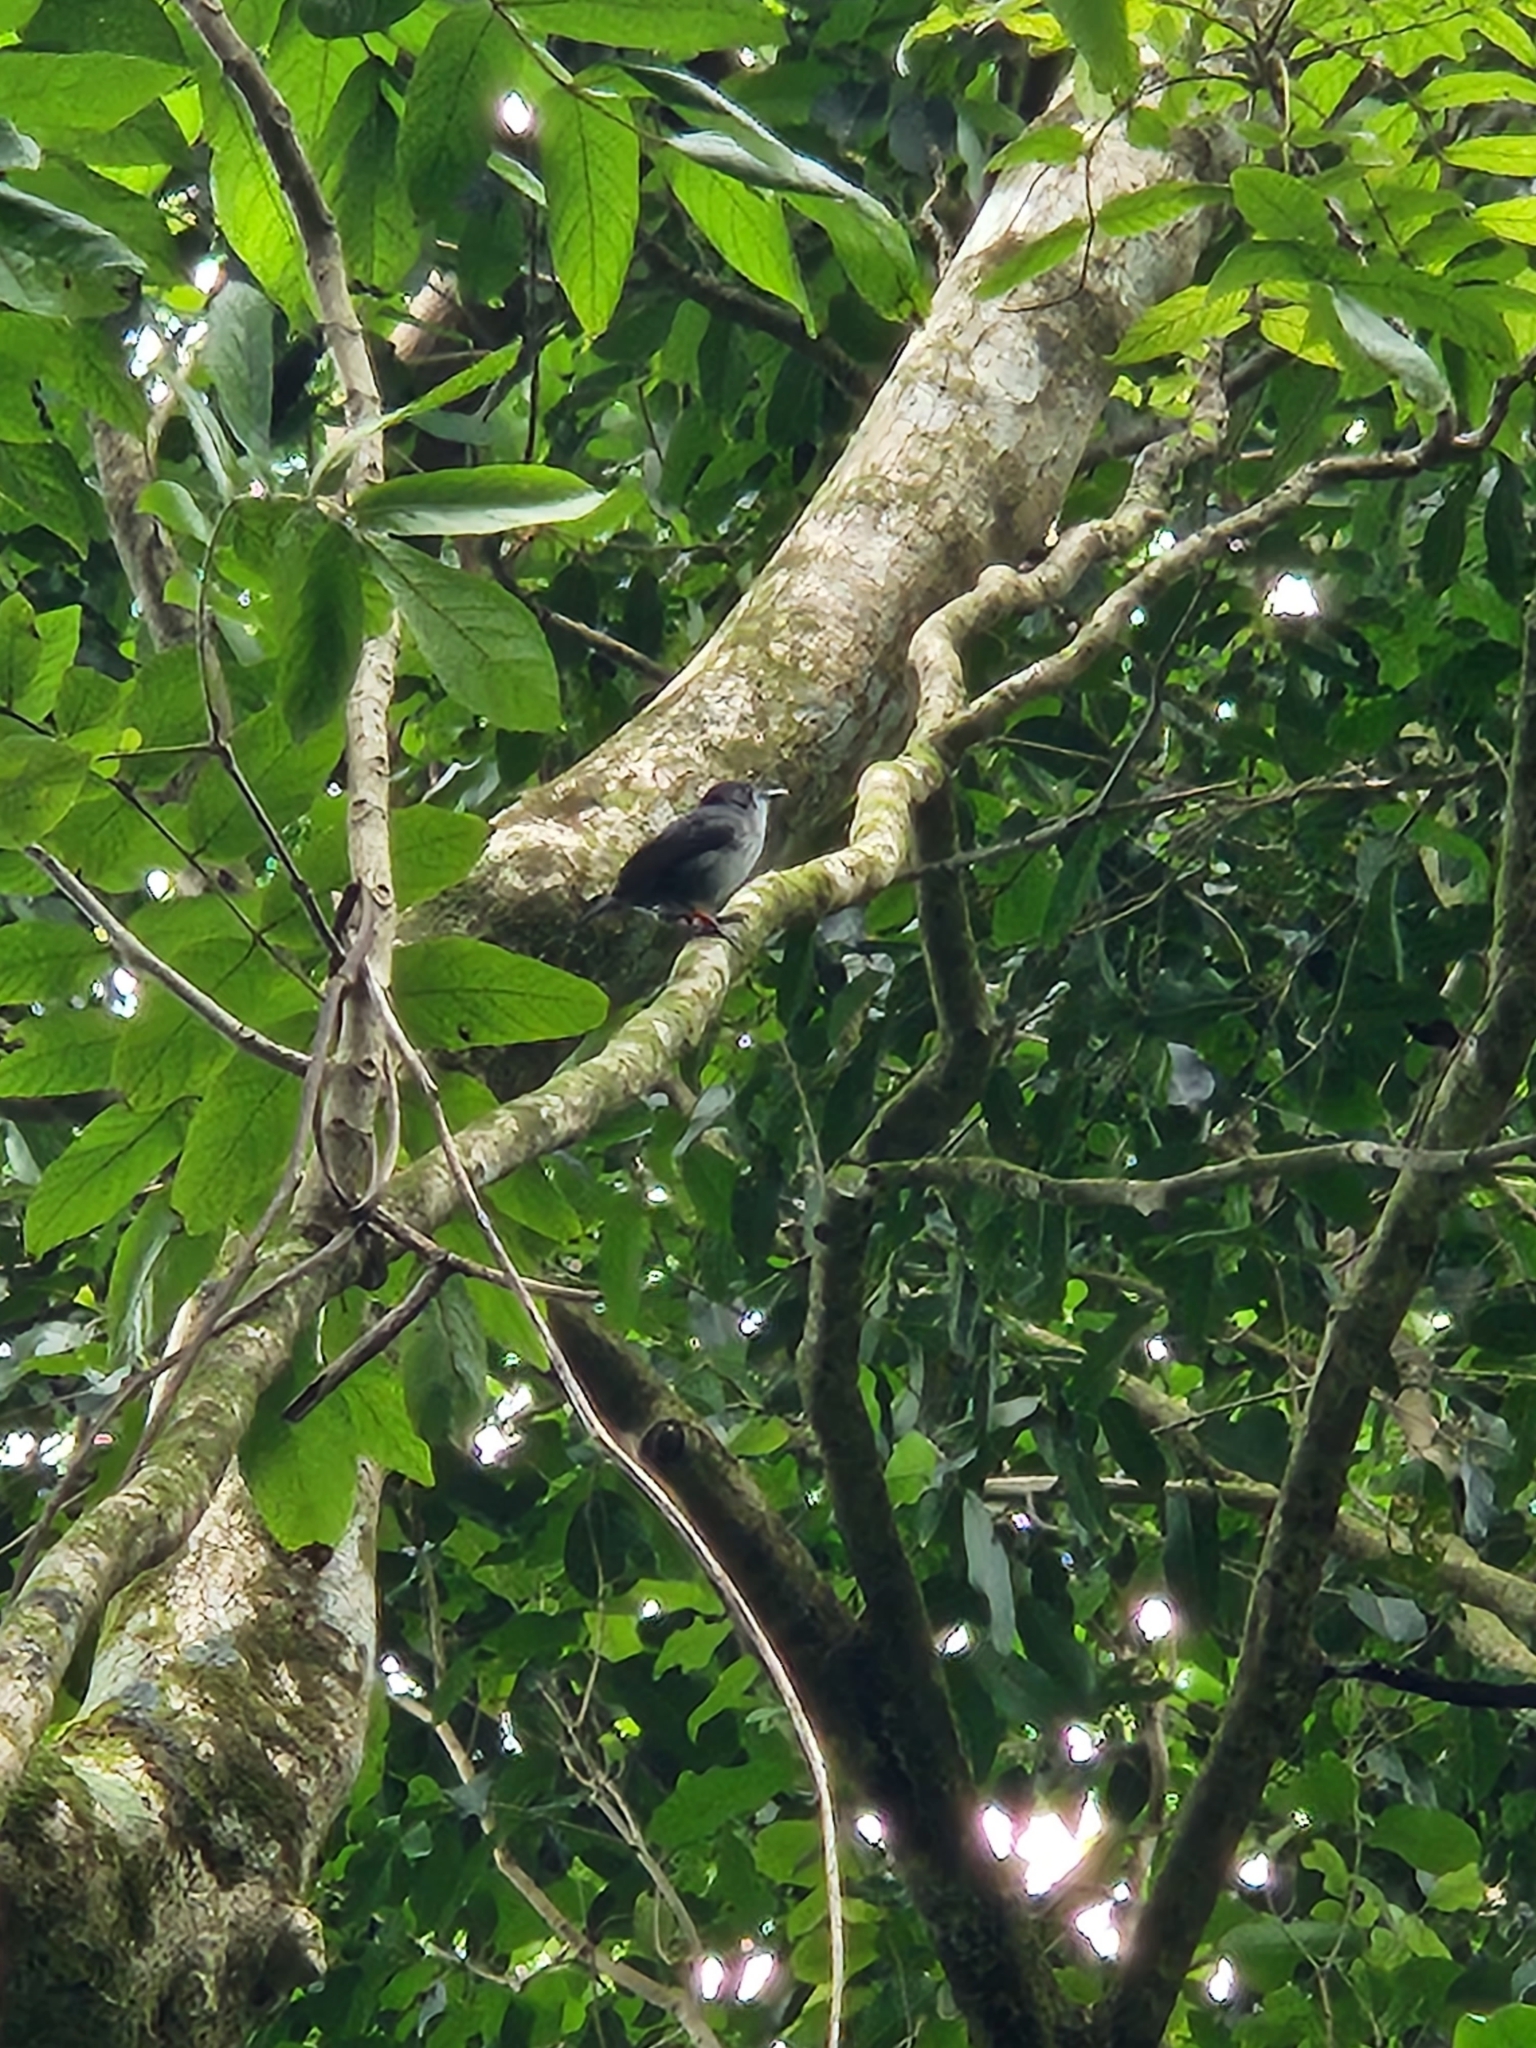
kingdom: Animalia
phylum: Chordata
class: Aves
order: Passeriformes
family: Monarchidae
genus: Pomarea
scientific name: Pomarea dimidiata
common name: Rarotonga monarch
